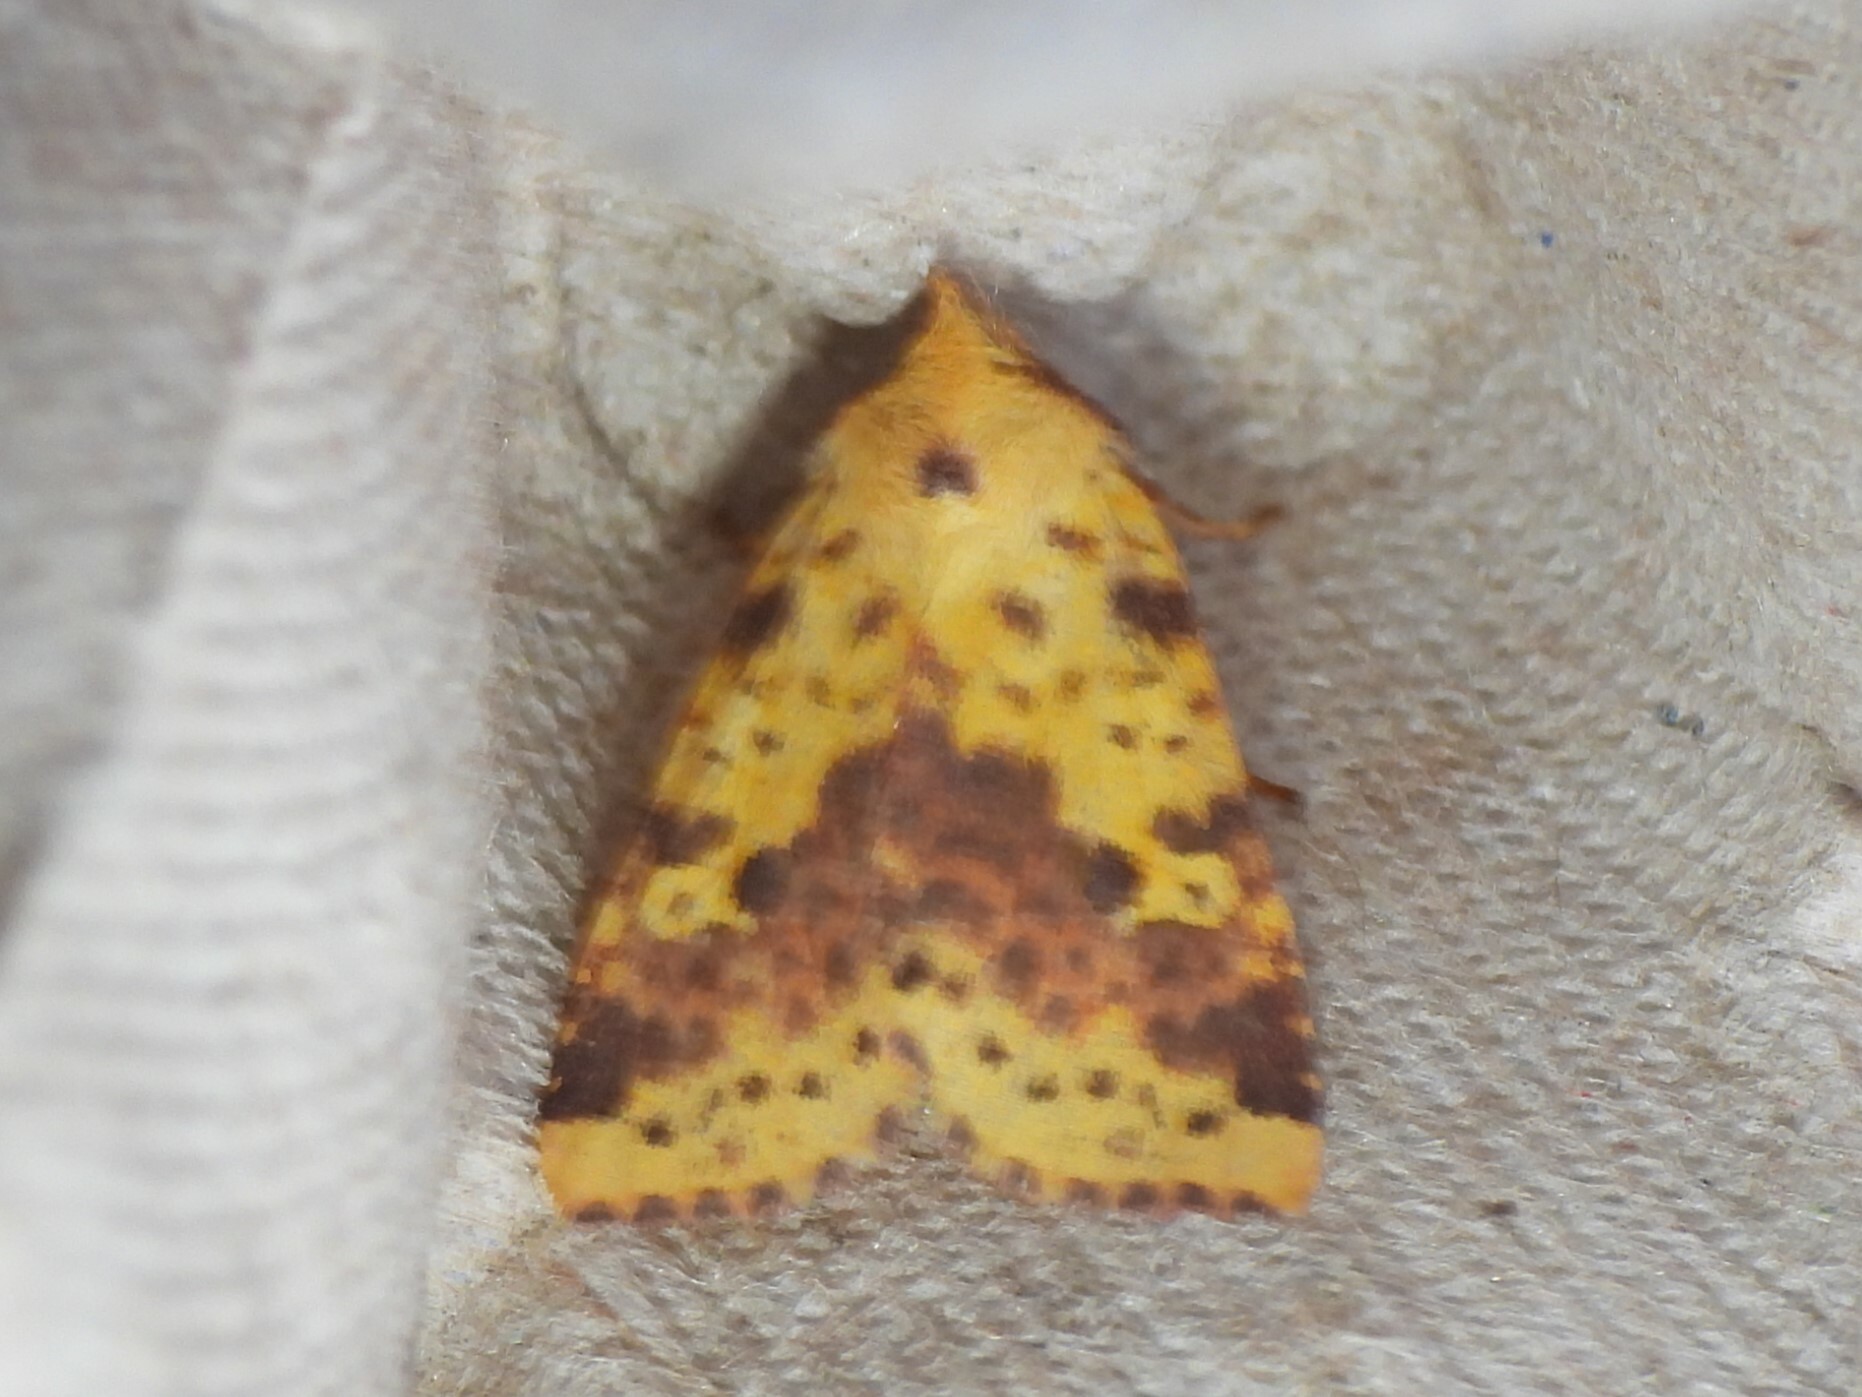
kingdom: Animalia
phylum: Arthropoda
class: Insecta
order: Lepidoptera
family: Noctuidae
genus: Xanthia
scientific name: Xanthia tatago
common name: Pink-banded sallow
